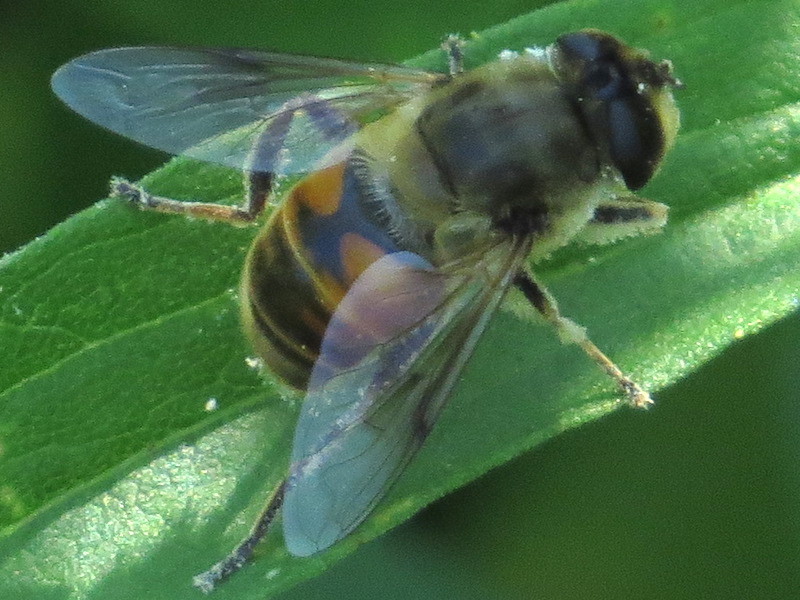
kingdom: Animalia
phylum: Arthropoda
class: Insecta
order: Diptera
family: Syrphidae
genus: Eristalis
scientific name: Eristalis tenax
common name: Drone fly
